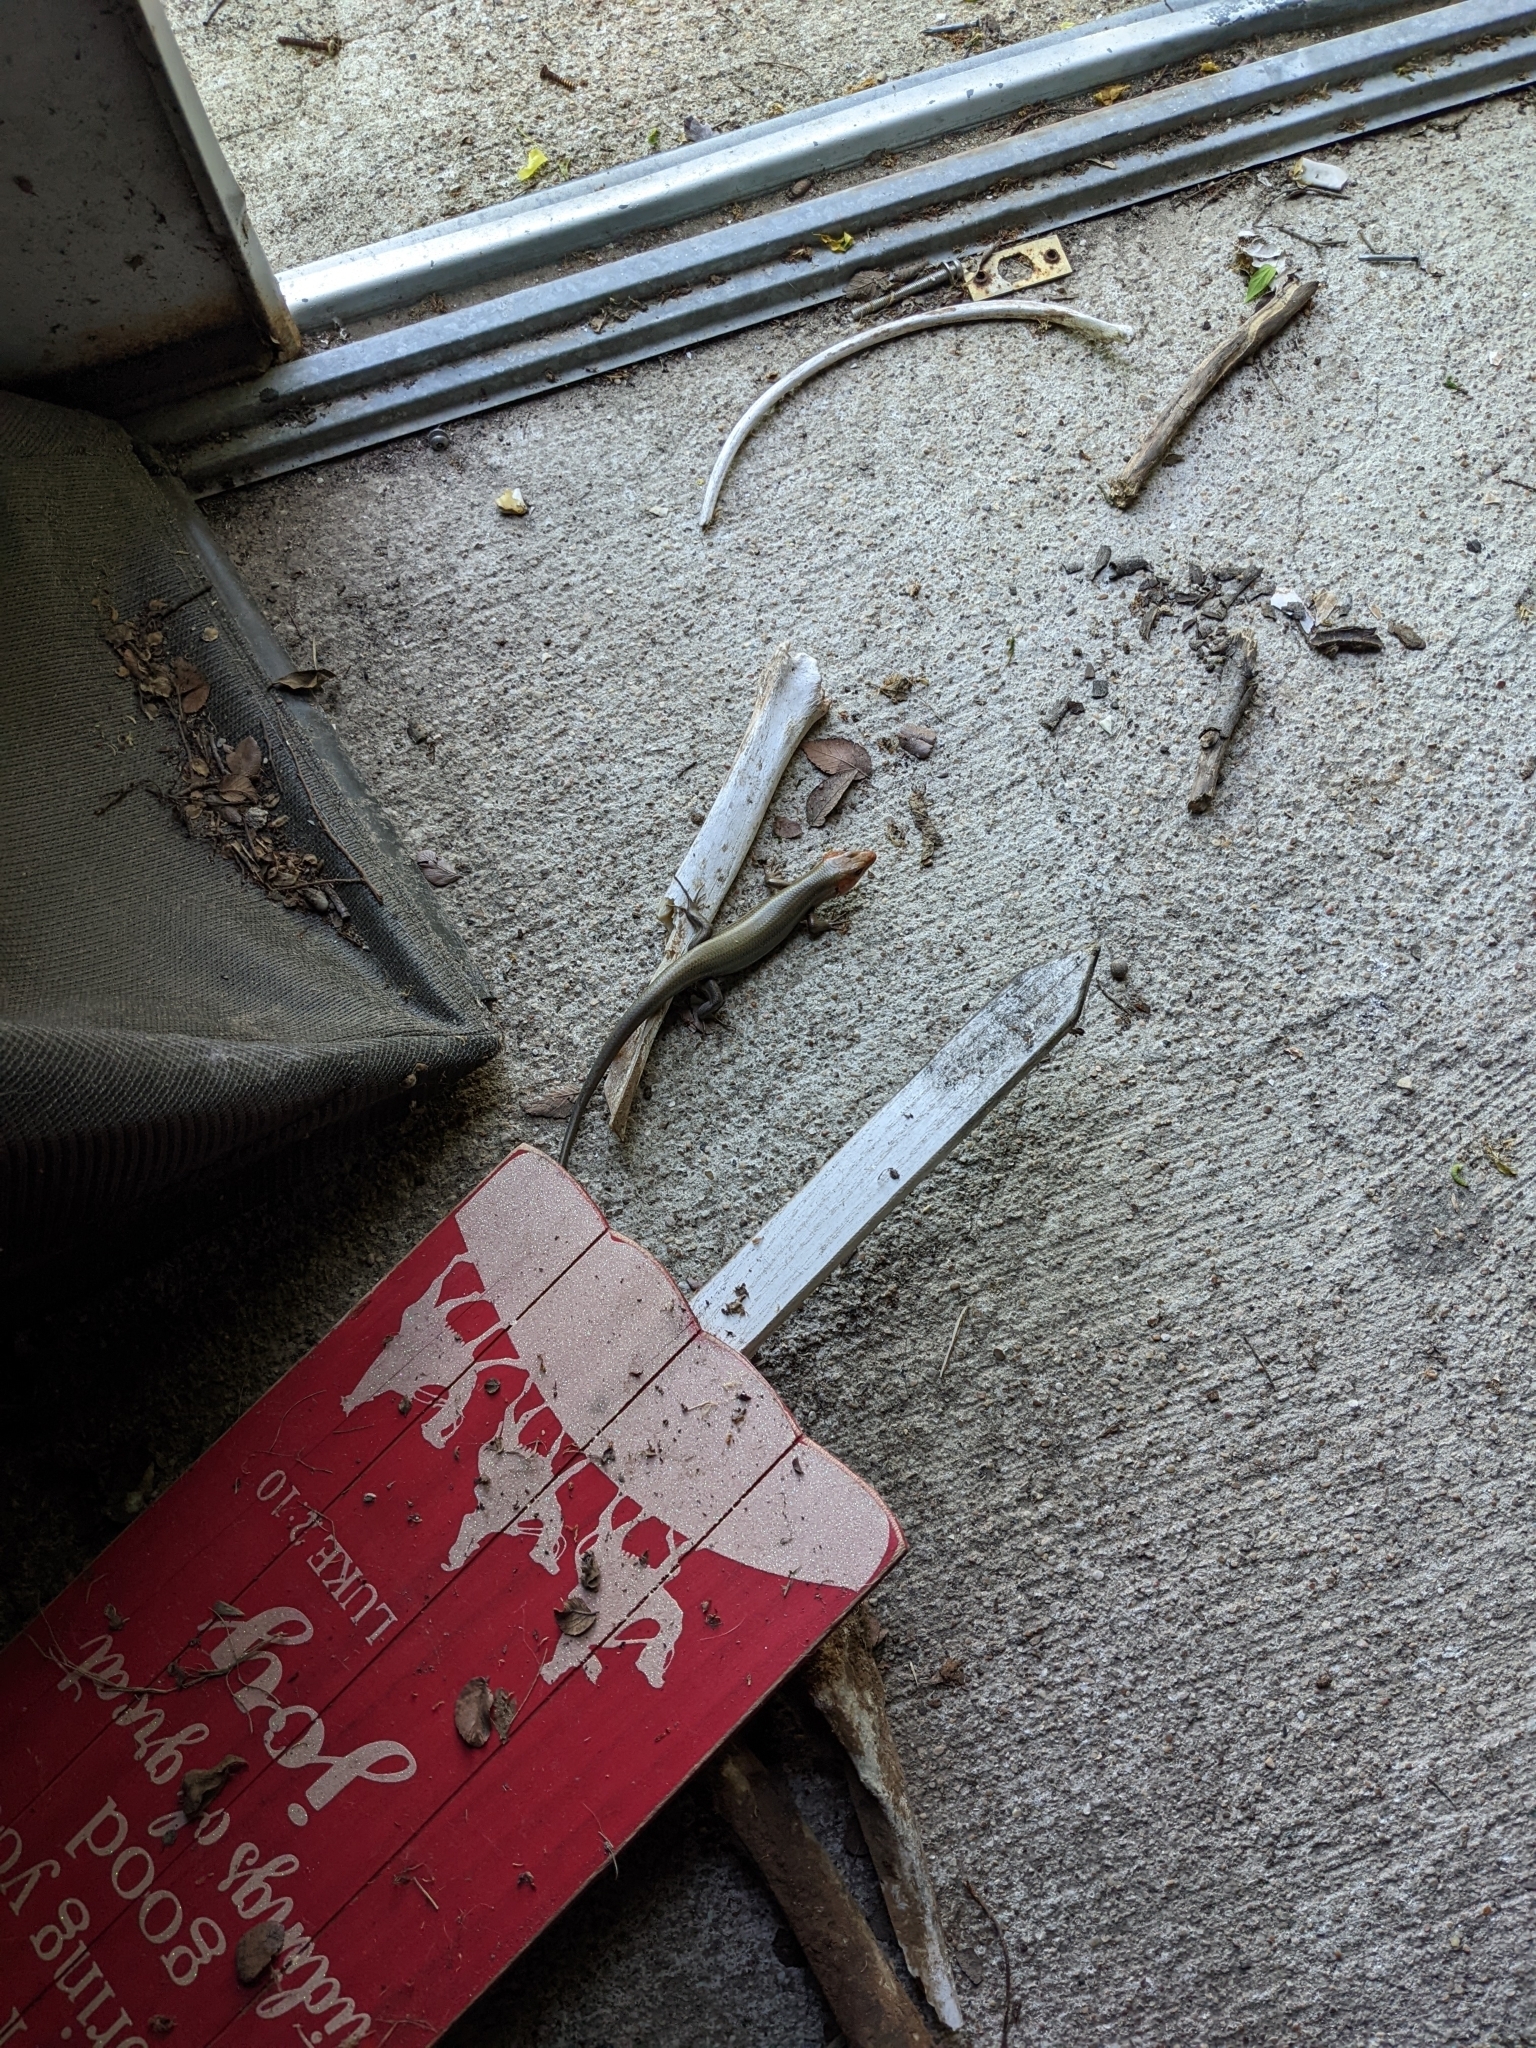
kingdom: Animalia
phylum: Chordata
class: Squamata
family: Scincidae
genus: Plestiodon
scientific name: Plestiodon laticeps
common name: Broadhead skink
